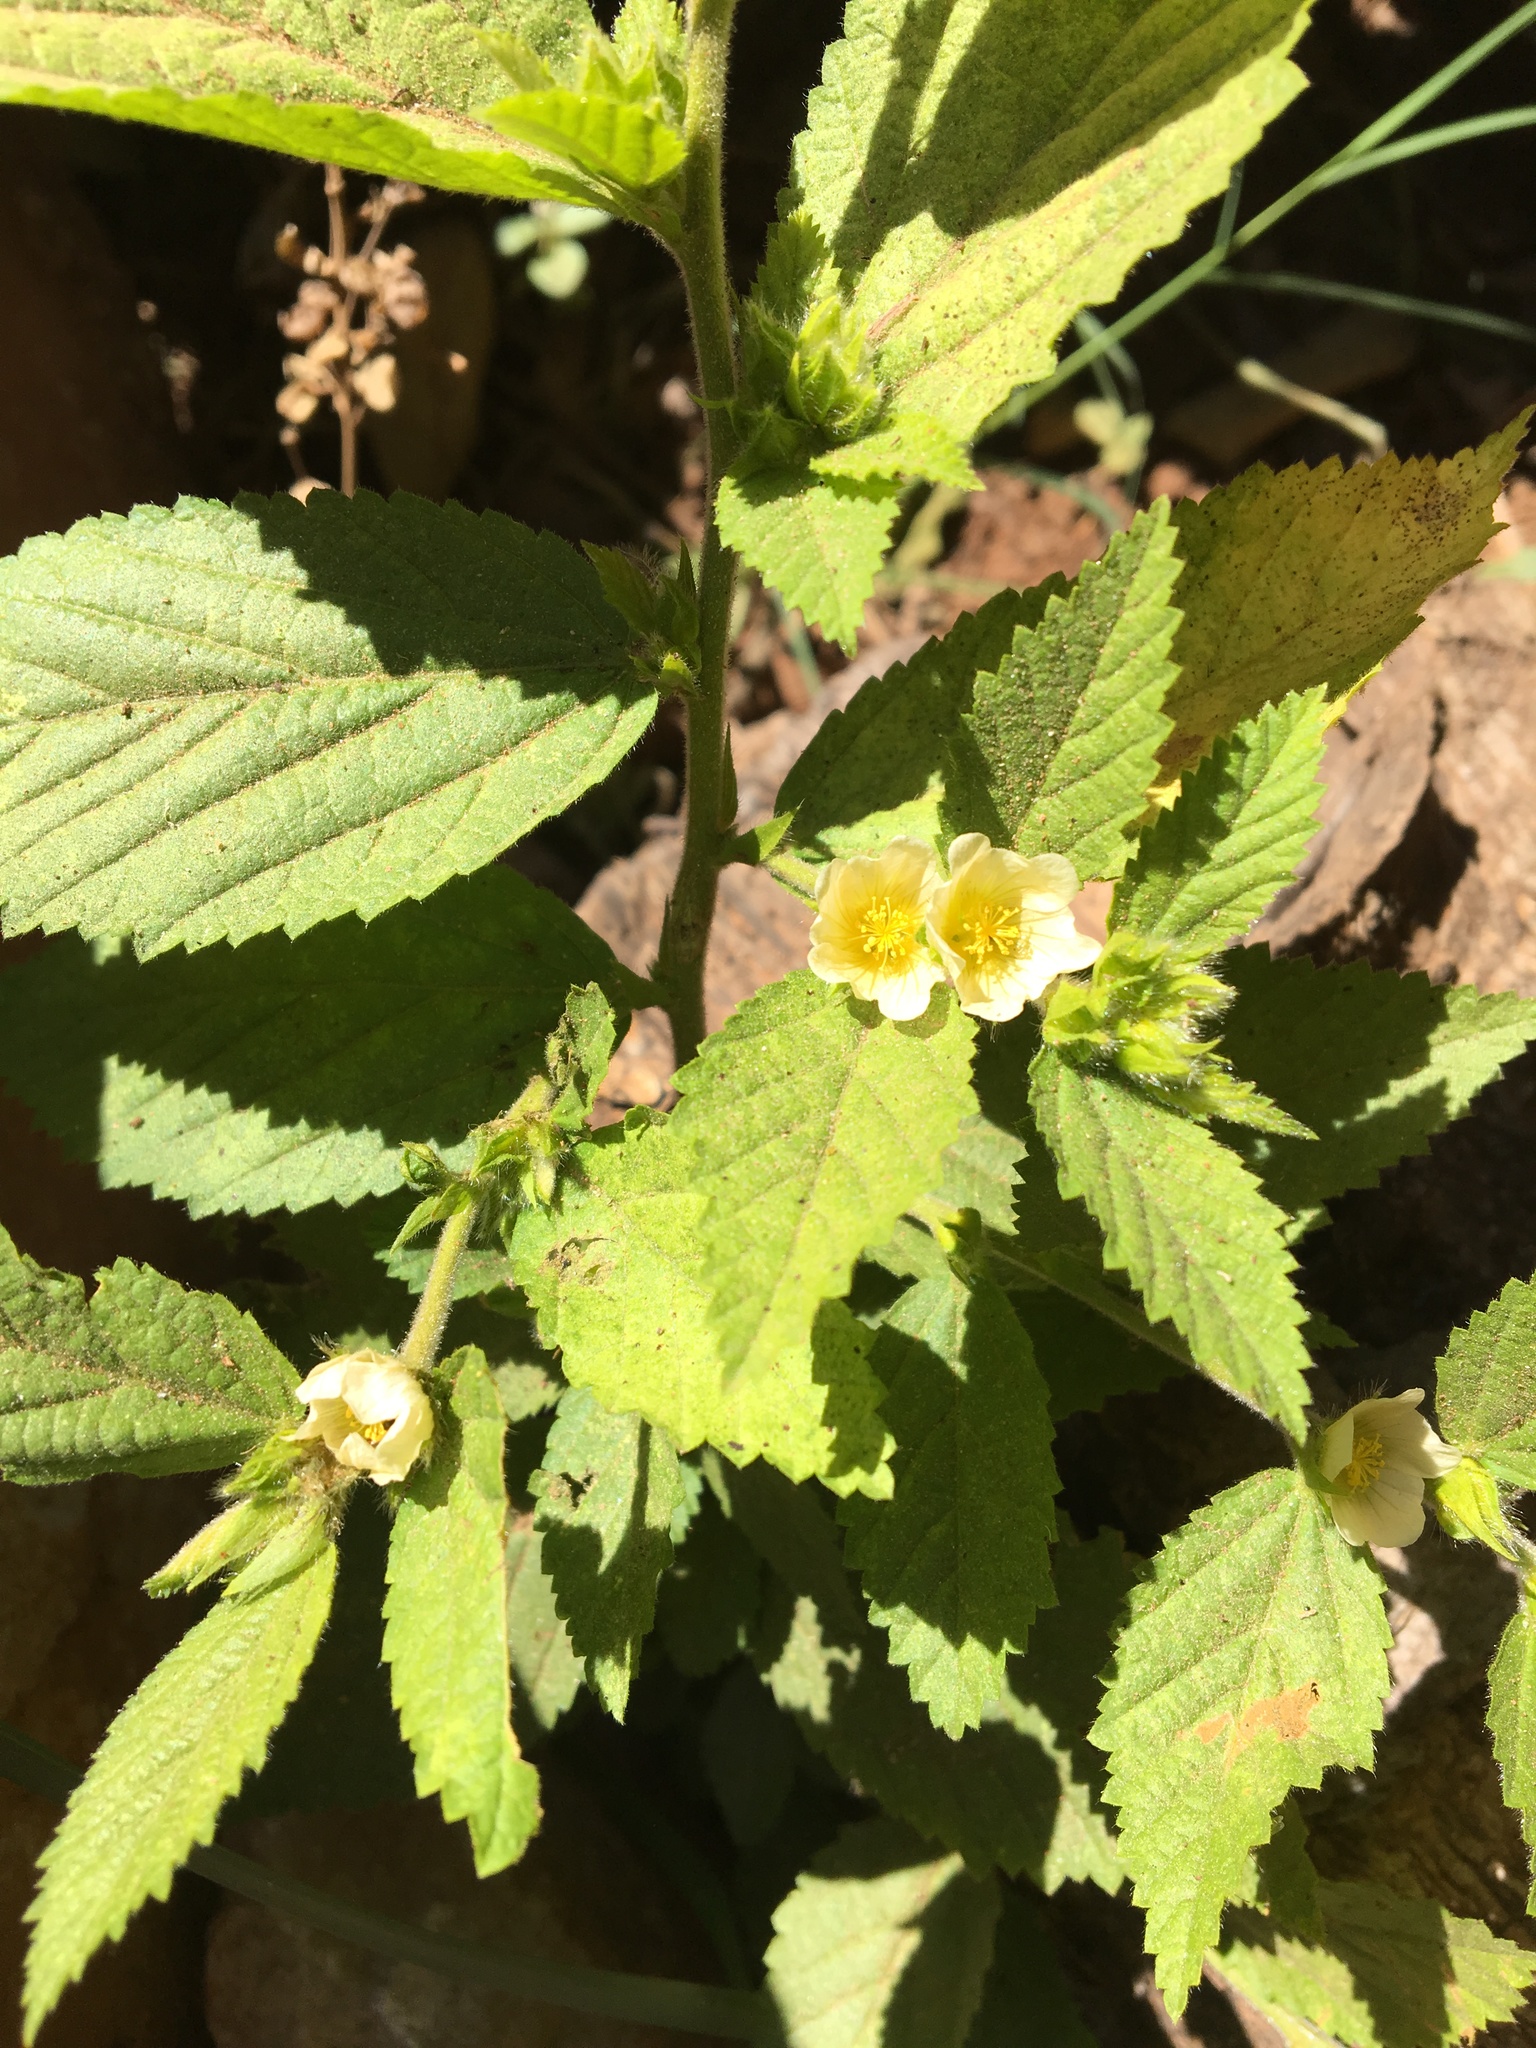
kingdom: Plantae
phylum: Tracheophyta
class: Magnoliopsida
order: Malvales
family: Malvaceae
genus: Sida
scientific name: Sida rhombifolia
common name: Queensland-hemp
